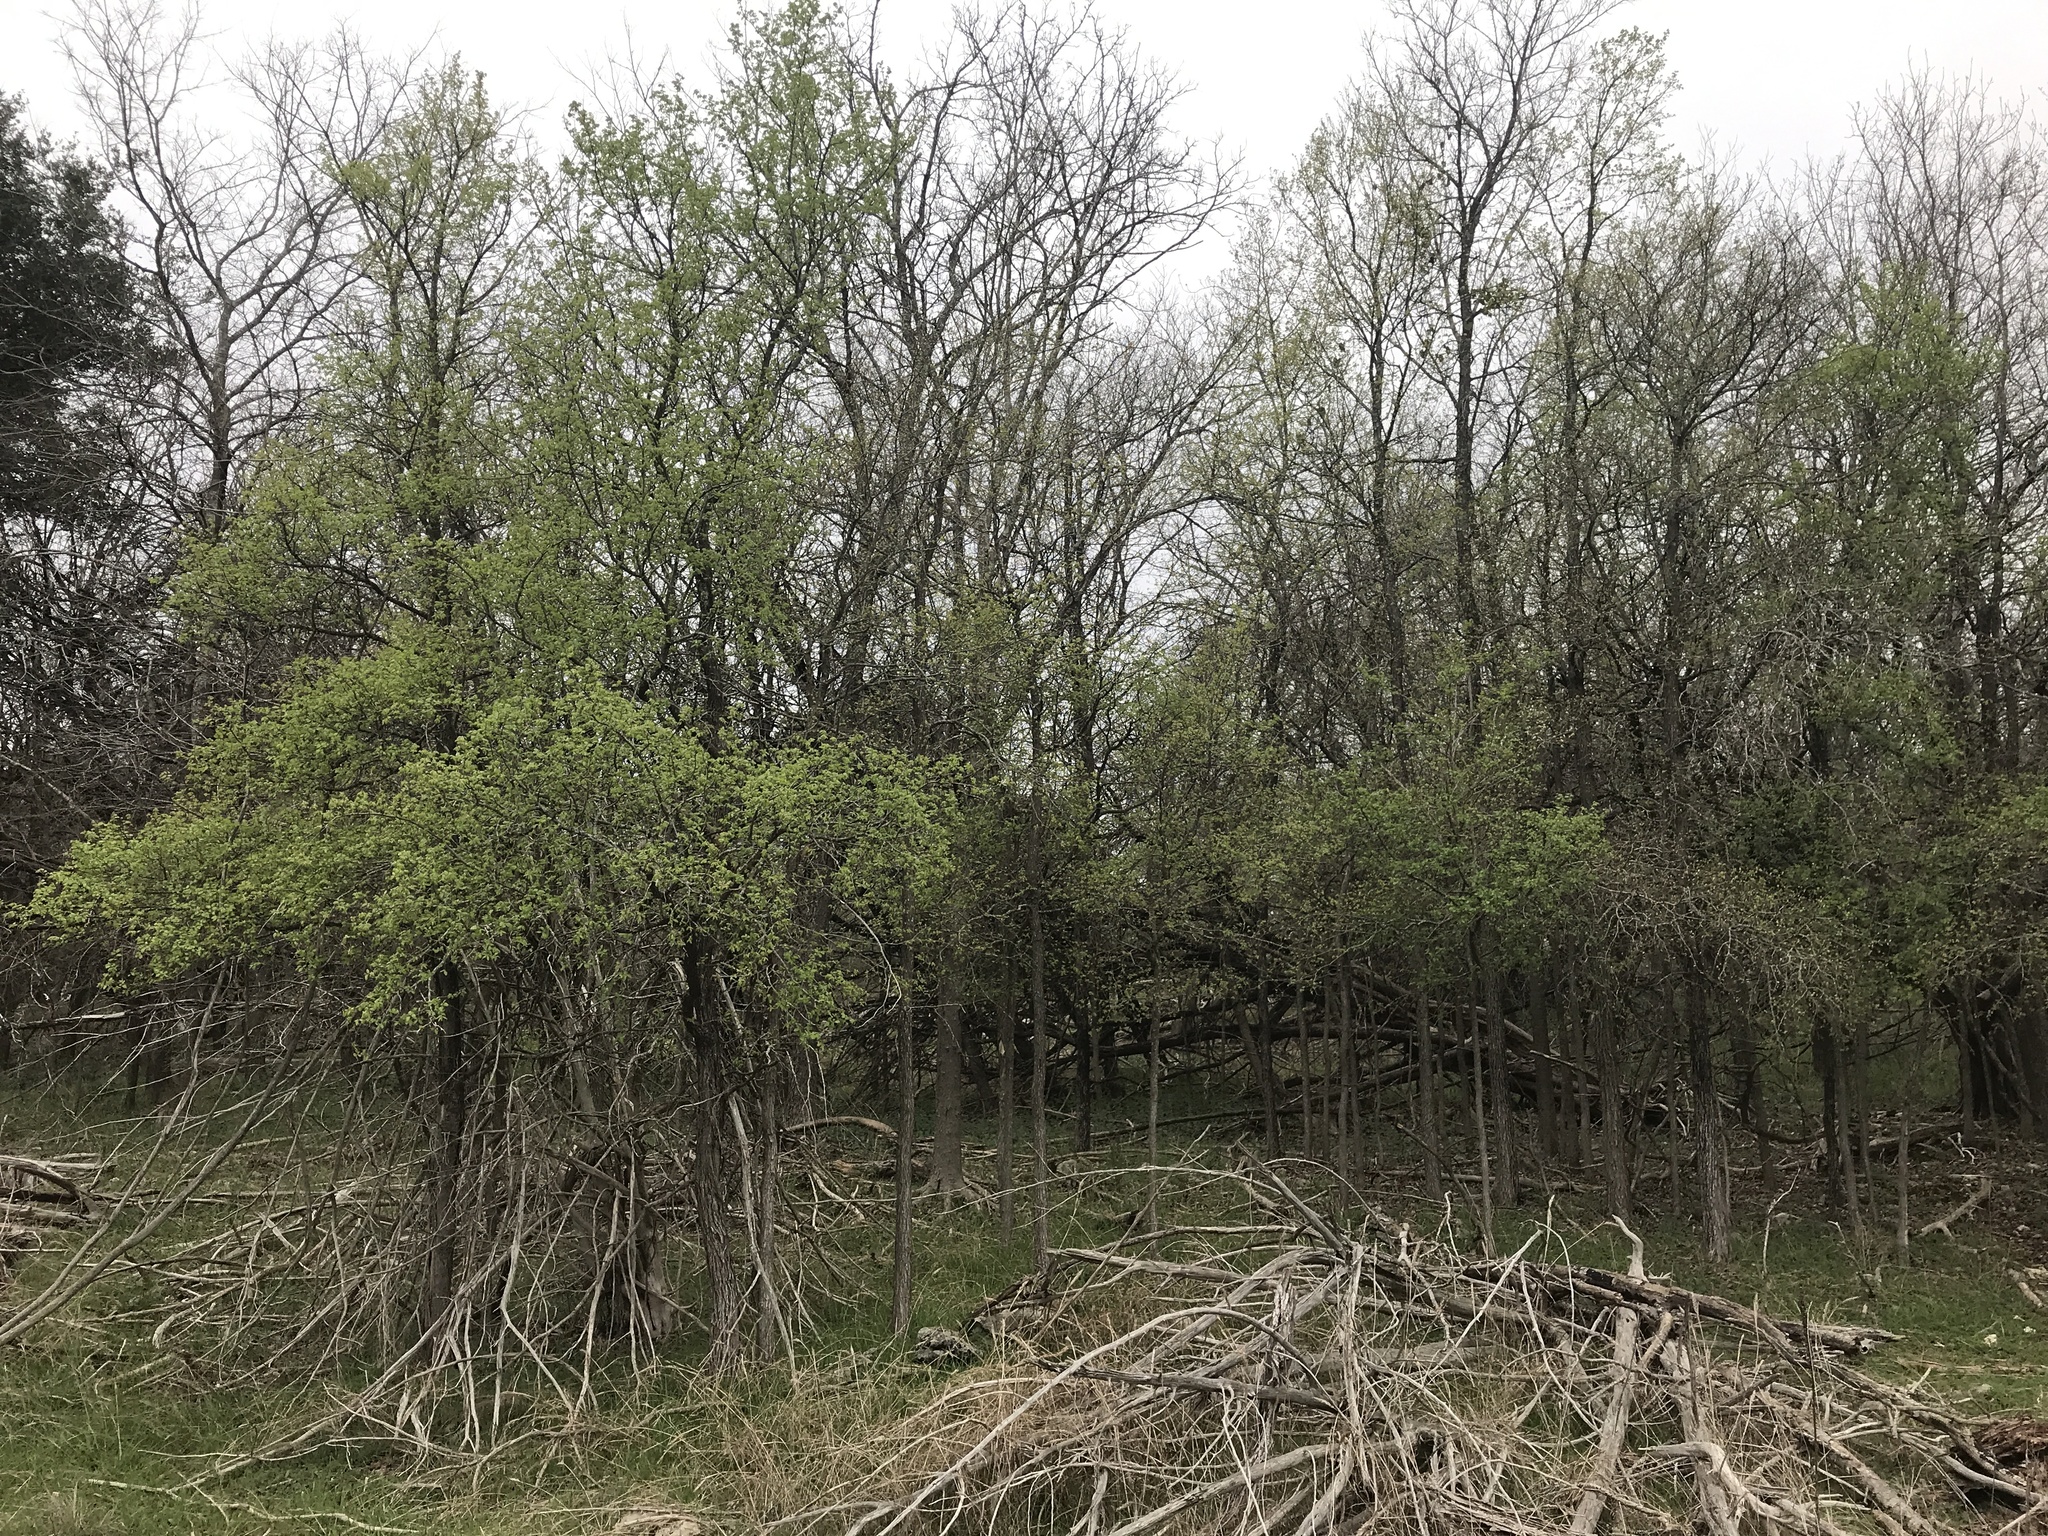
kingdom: Plantae
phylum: Tracheophyta
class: Magnoliopsida
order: Rosales
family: Ulmaceae
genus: Ulmus
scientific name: Ulmus crassifolia
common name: Basket elm
